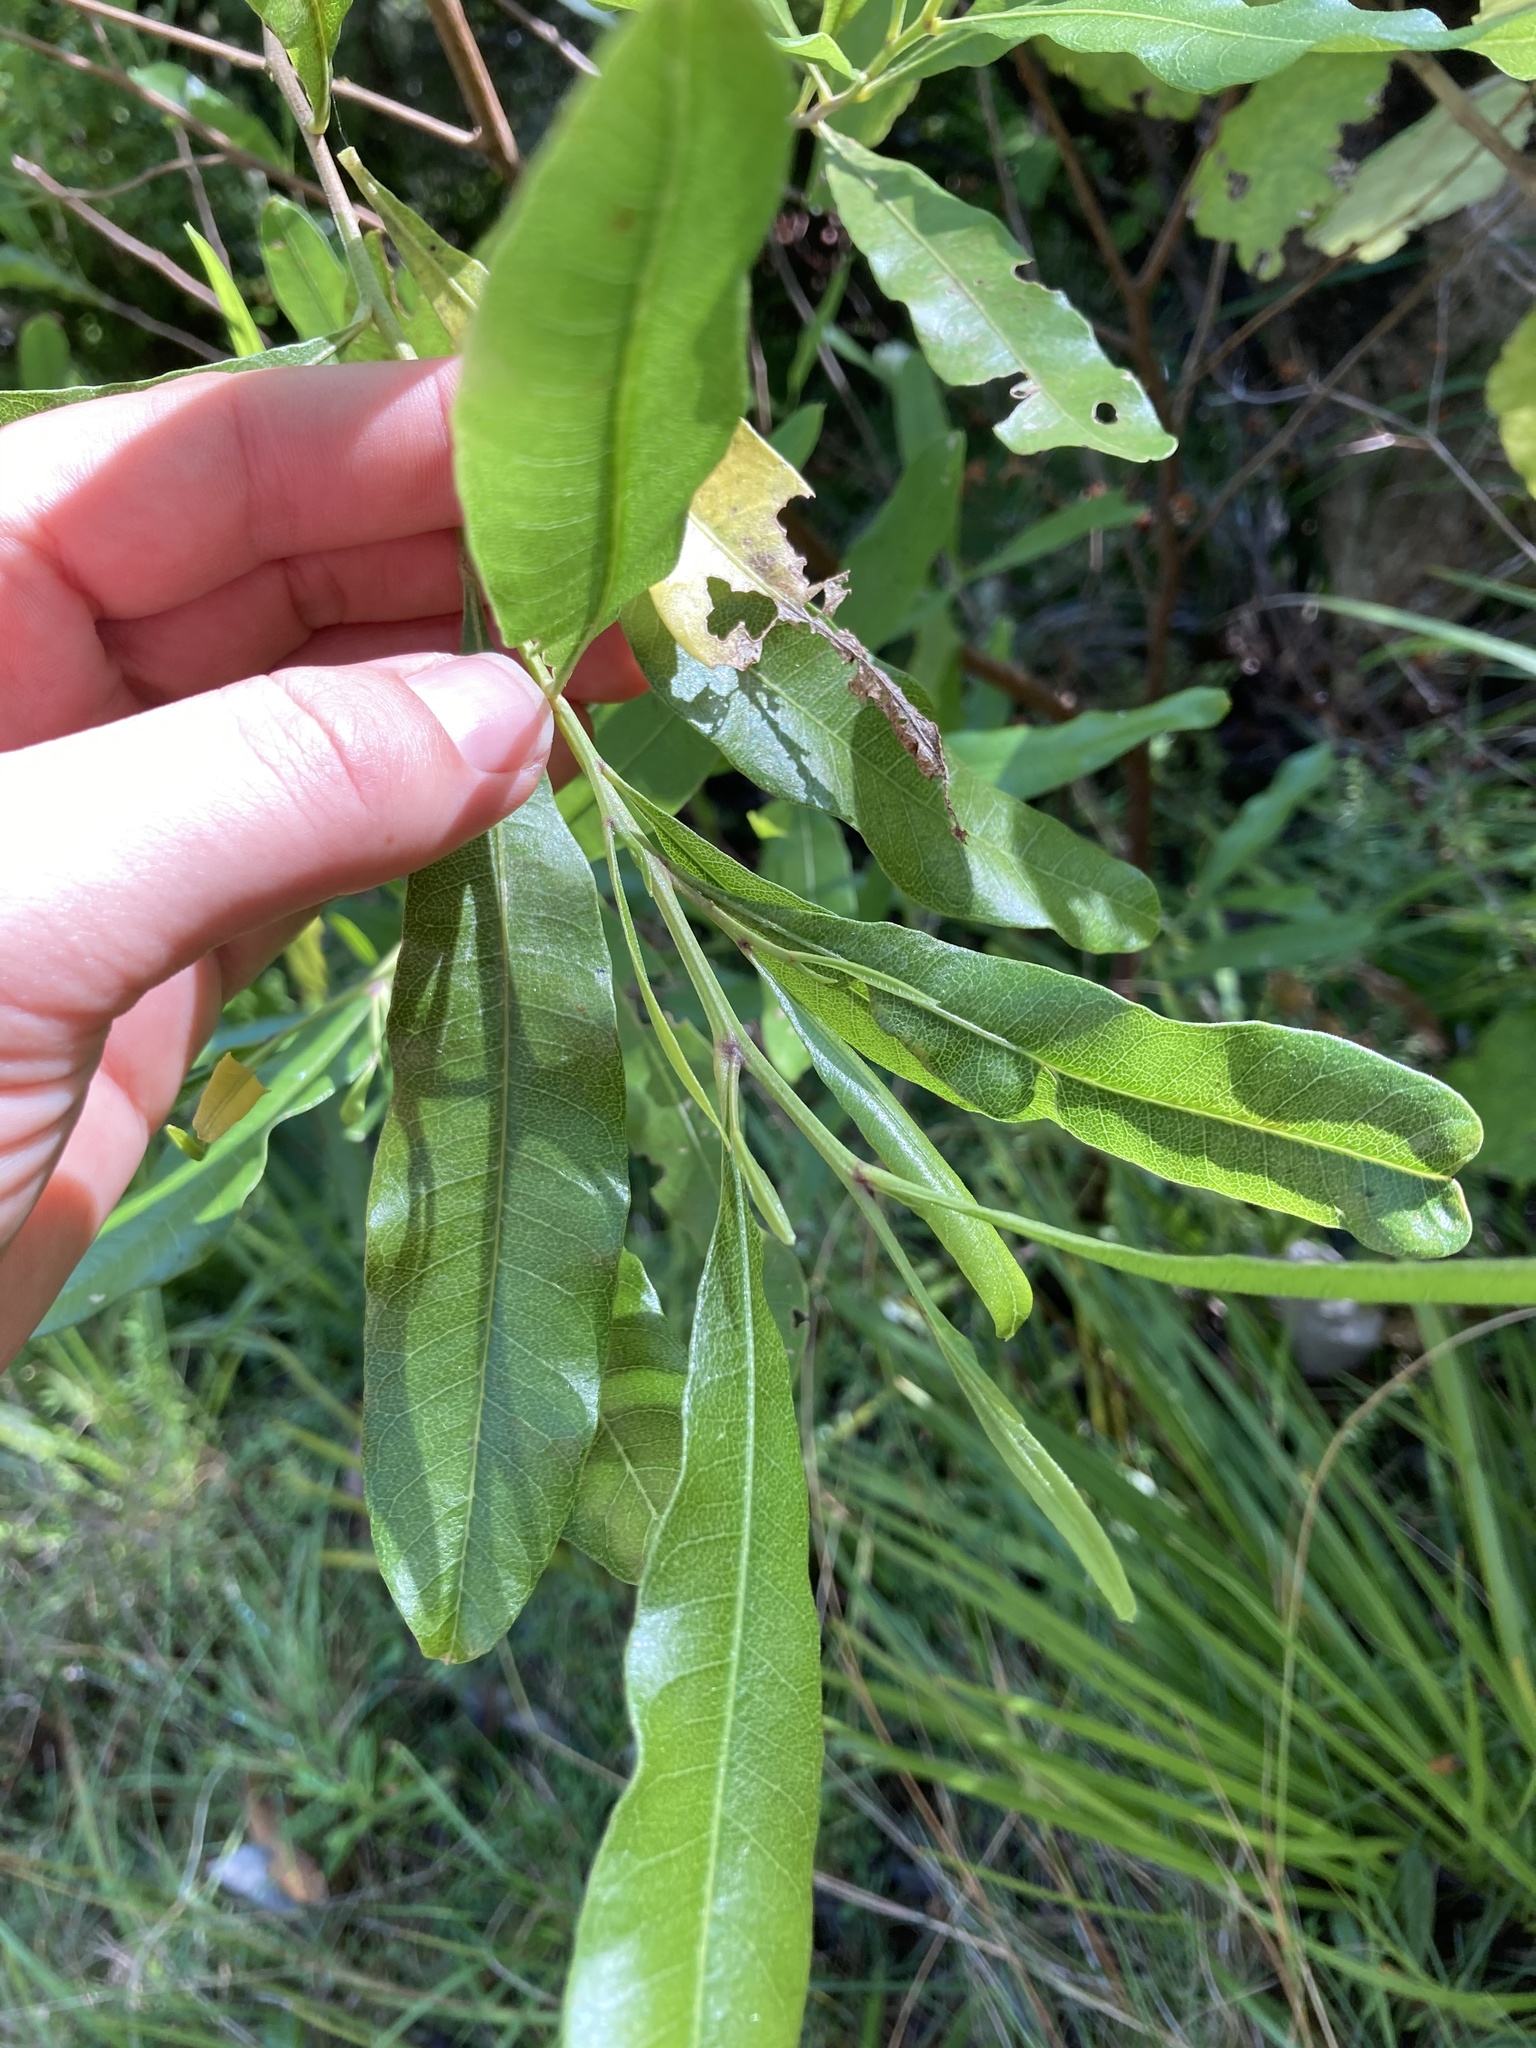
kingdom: Plantae
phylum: Tracheophyta
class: Magnoliopsida
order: Sapindales
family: Sapindaceae
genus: Dodonaea
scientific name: Dodonaea viscosa
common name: Hopbush
